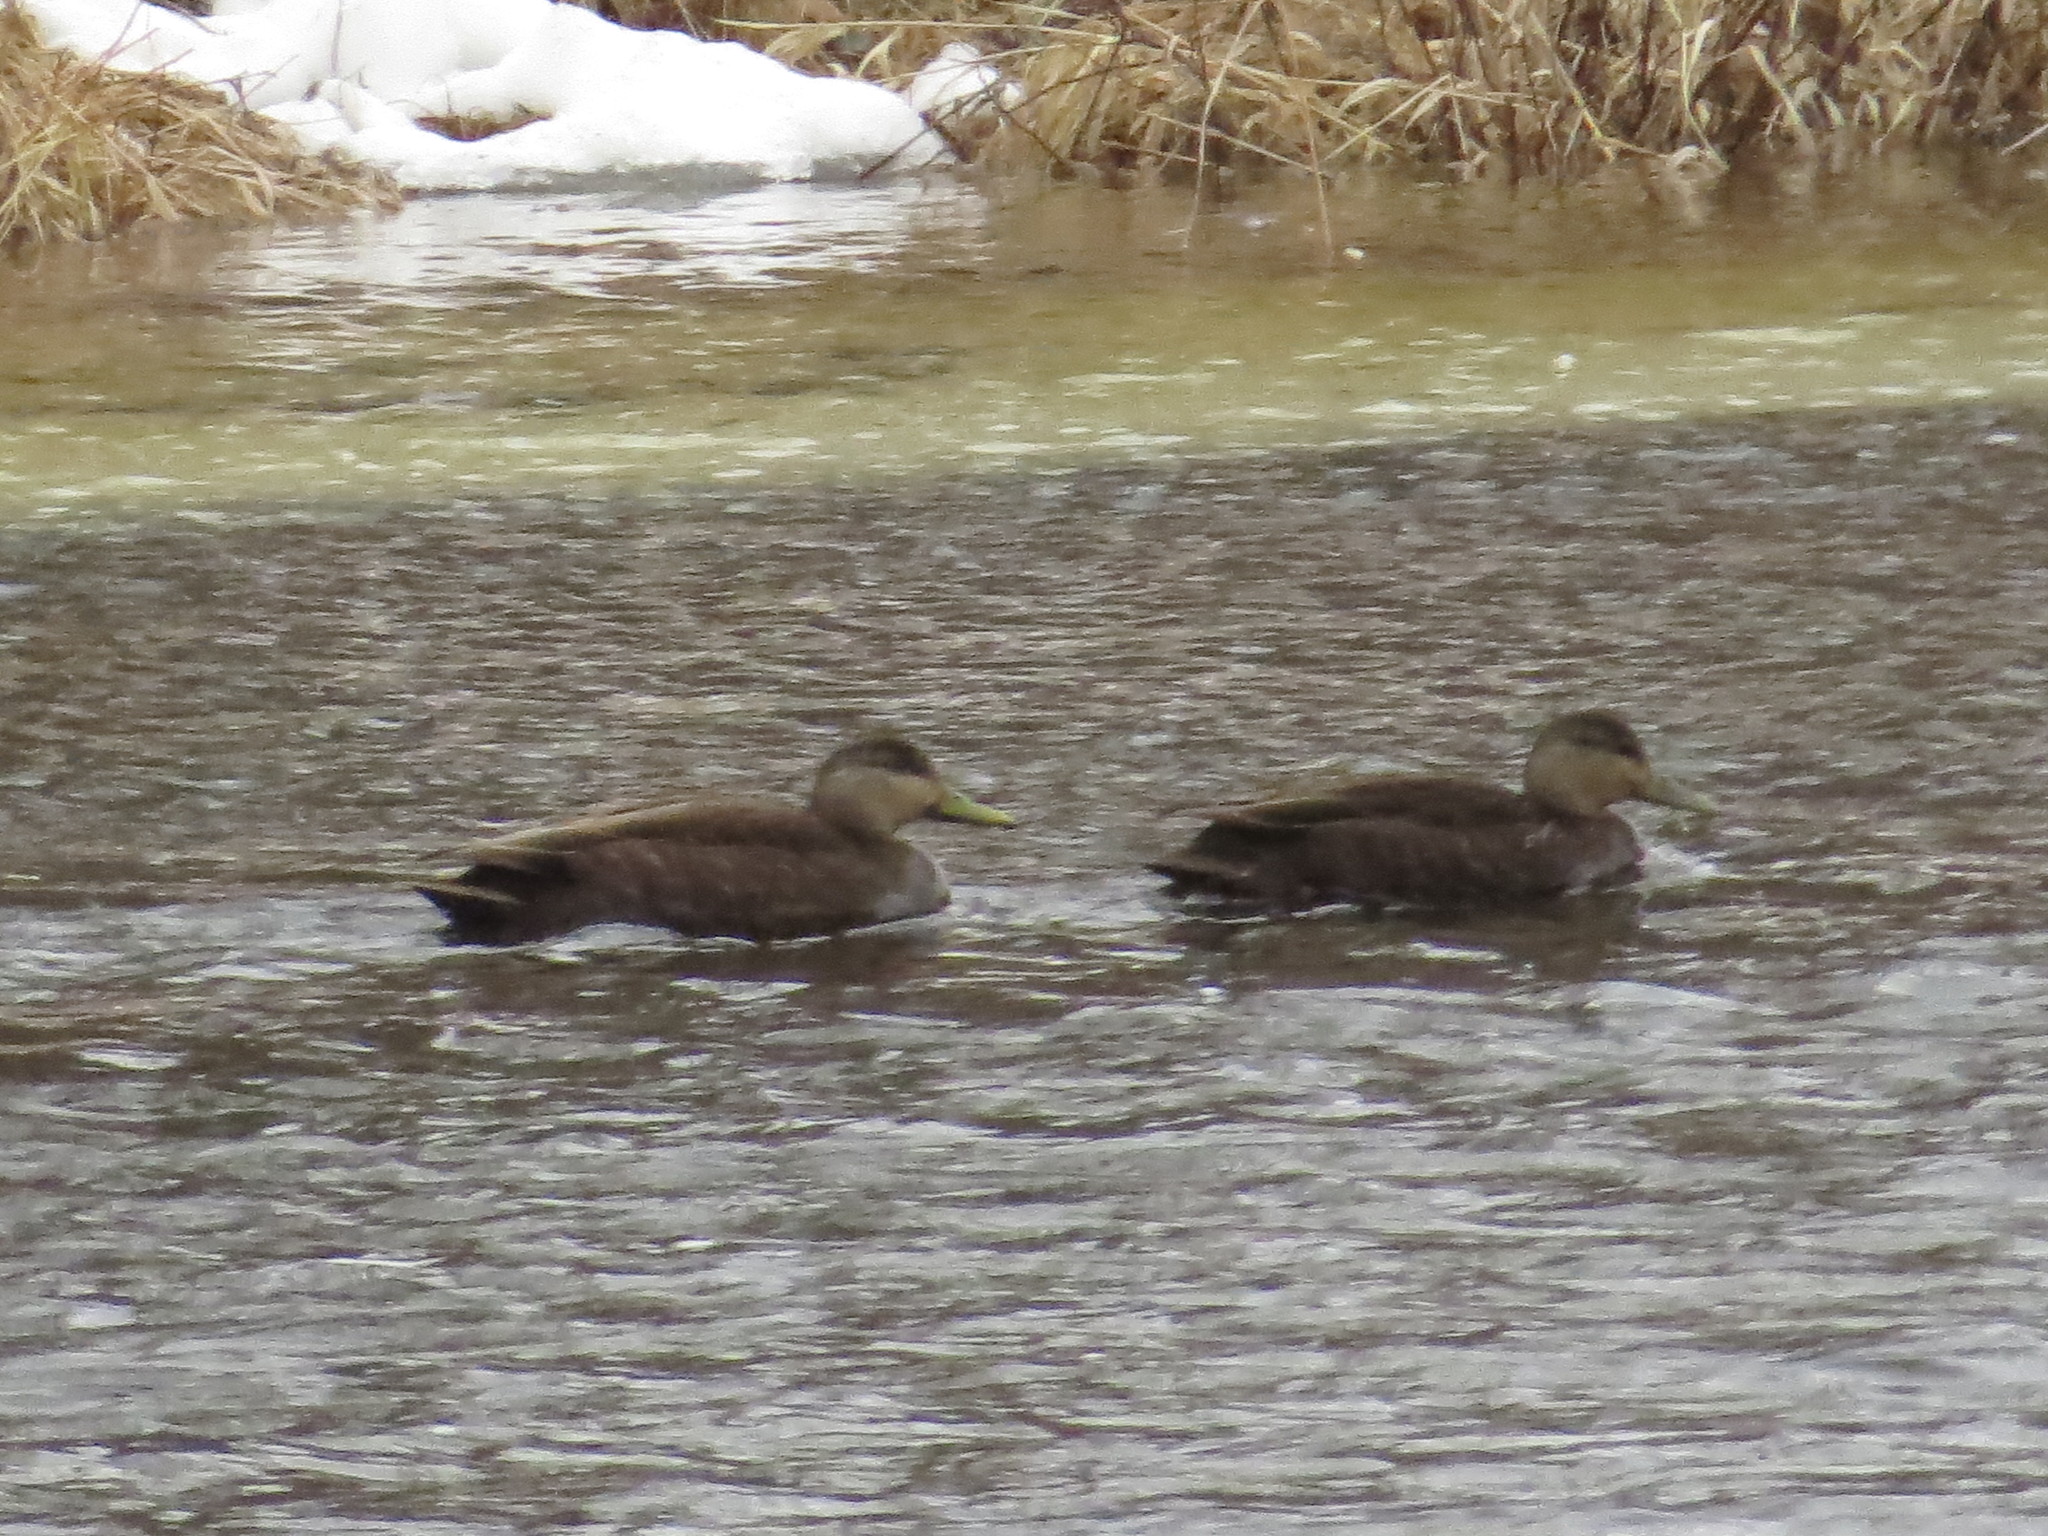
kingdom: Animalia
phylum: Chordata
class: Aves
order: Anseriformes
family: Anatidae
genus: Anas
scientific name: Anas rubripes
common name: American black duck
